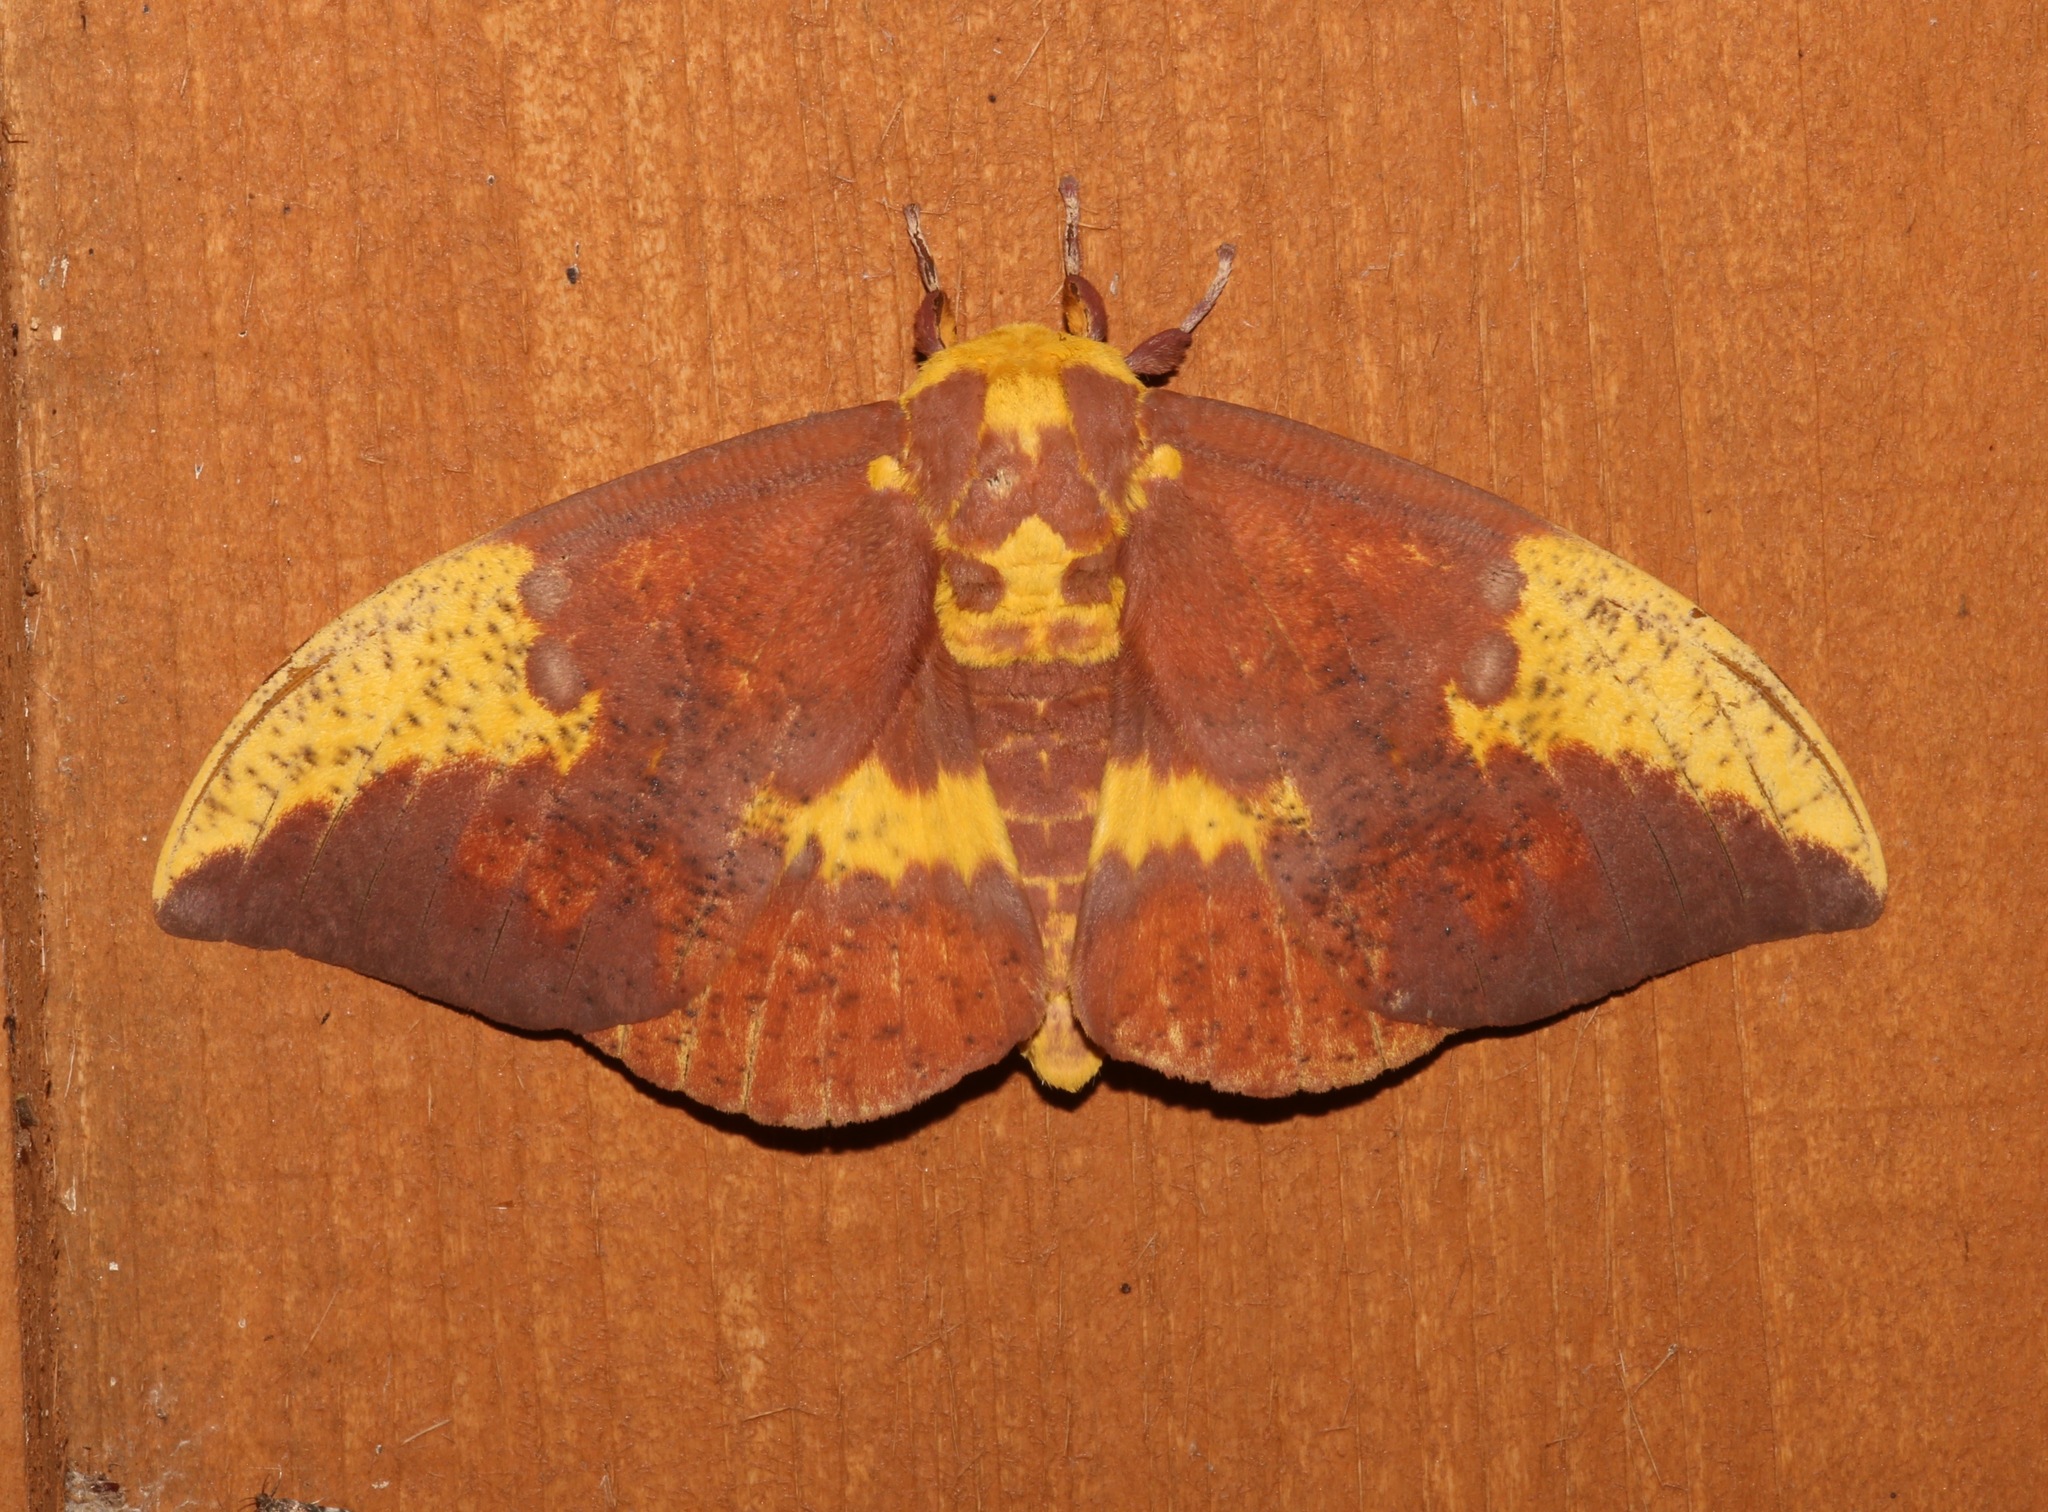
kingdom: Animalia
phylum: Arthropoda
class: Insecta
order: Lepidoptera
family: Saturniidae
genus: Eacles
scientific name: Eacles imperialis
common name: Imperial moth
